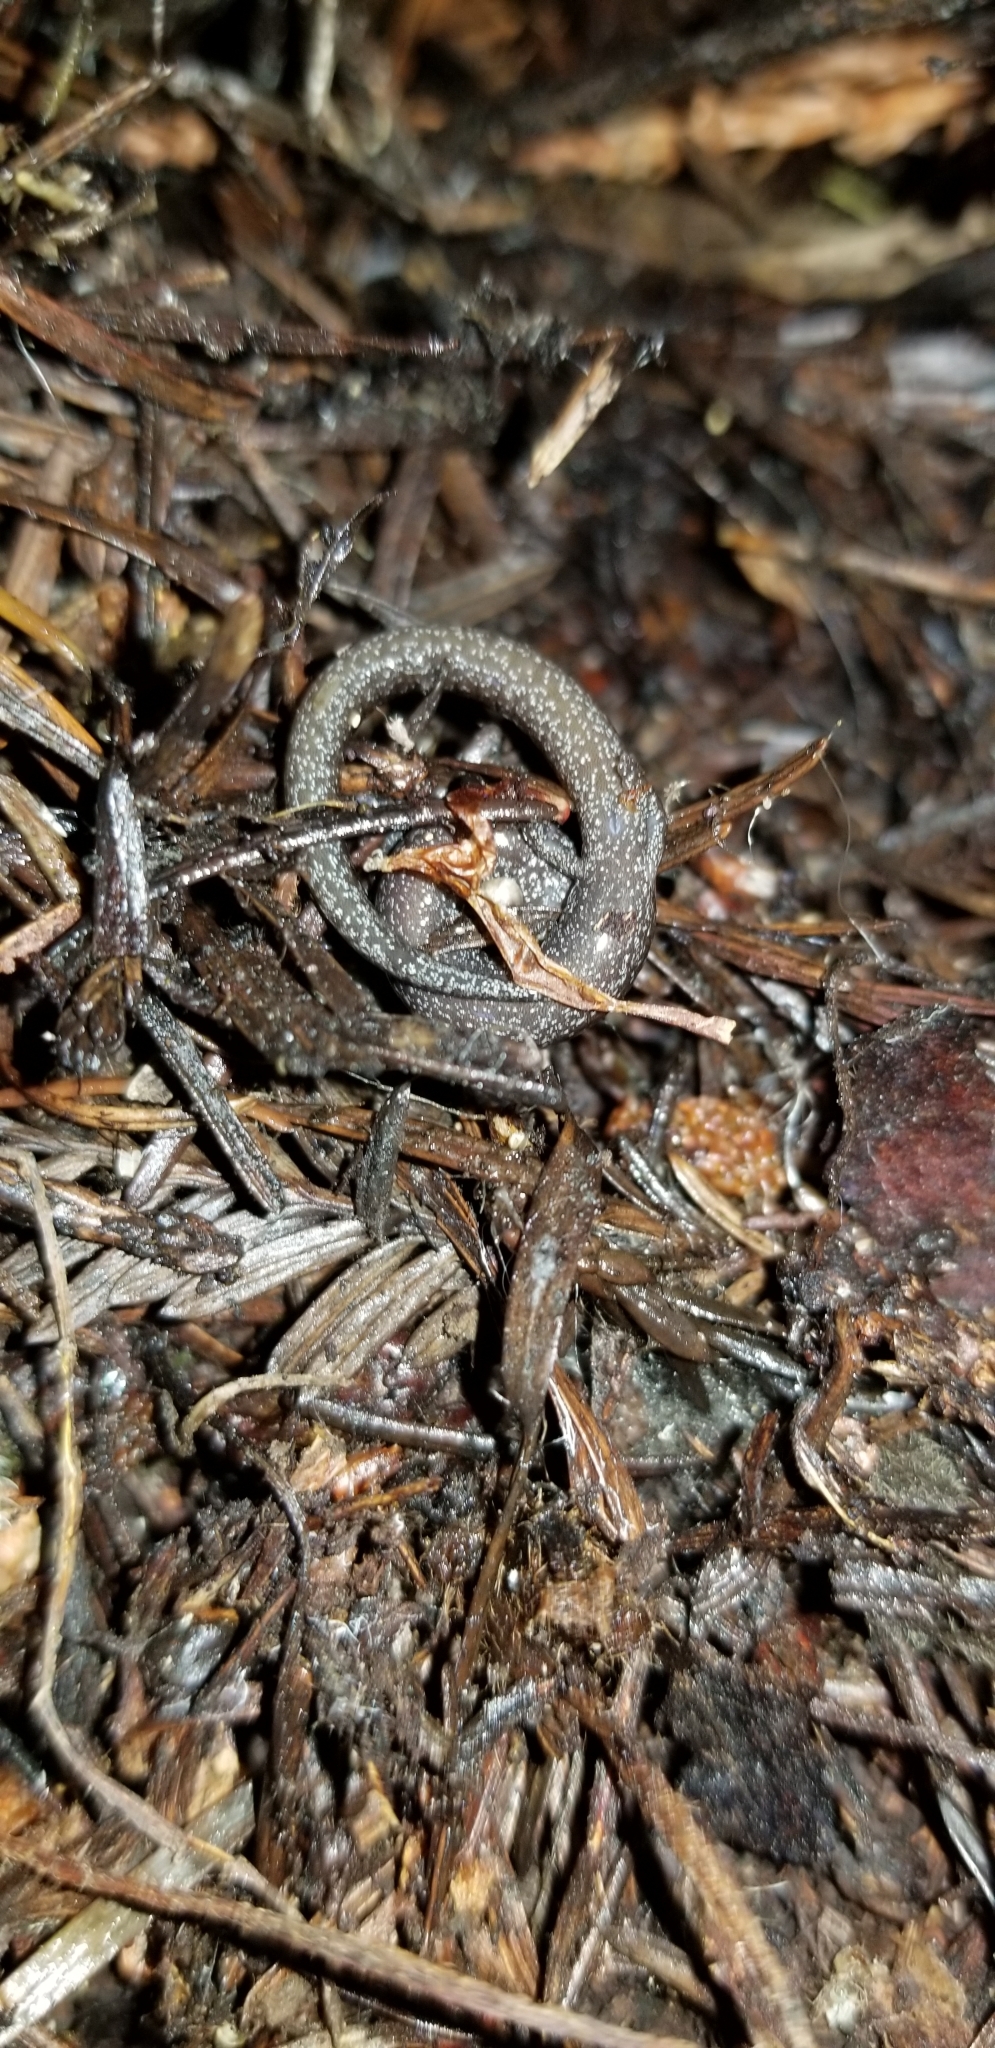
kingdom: Animalia
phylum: Chordata
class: Amphibia
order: Caudata
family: Plethodontidae
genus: Batrachoseps
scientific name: Batrachoseps attenuatus
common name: California slender salamander
